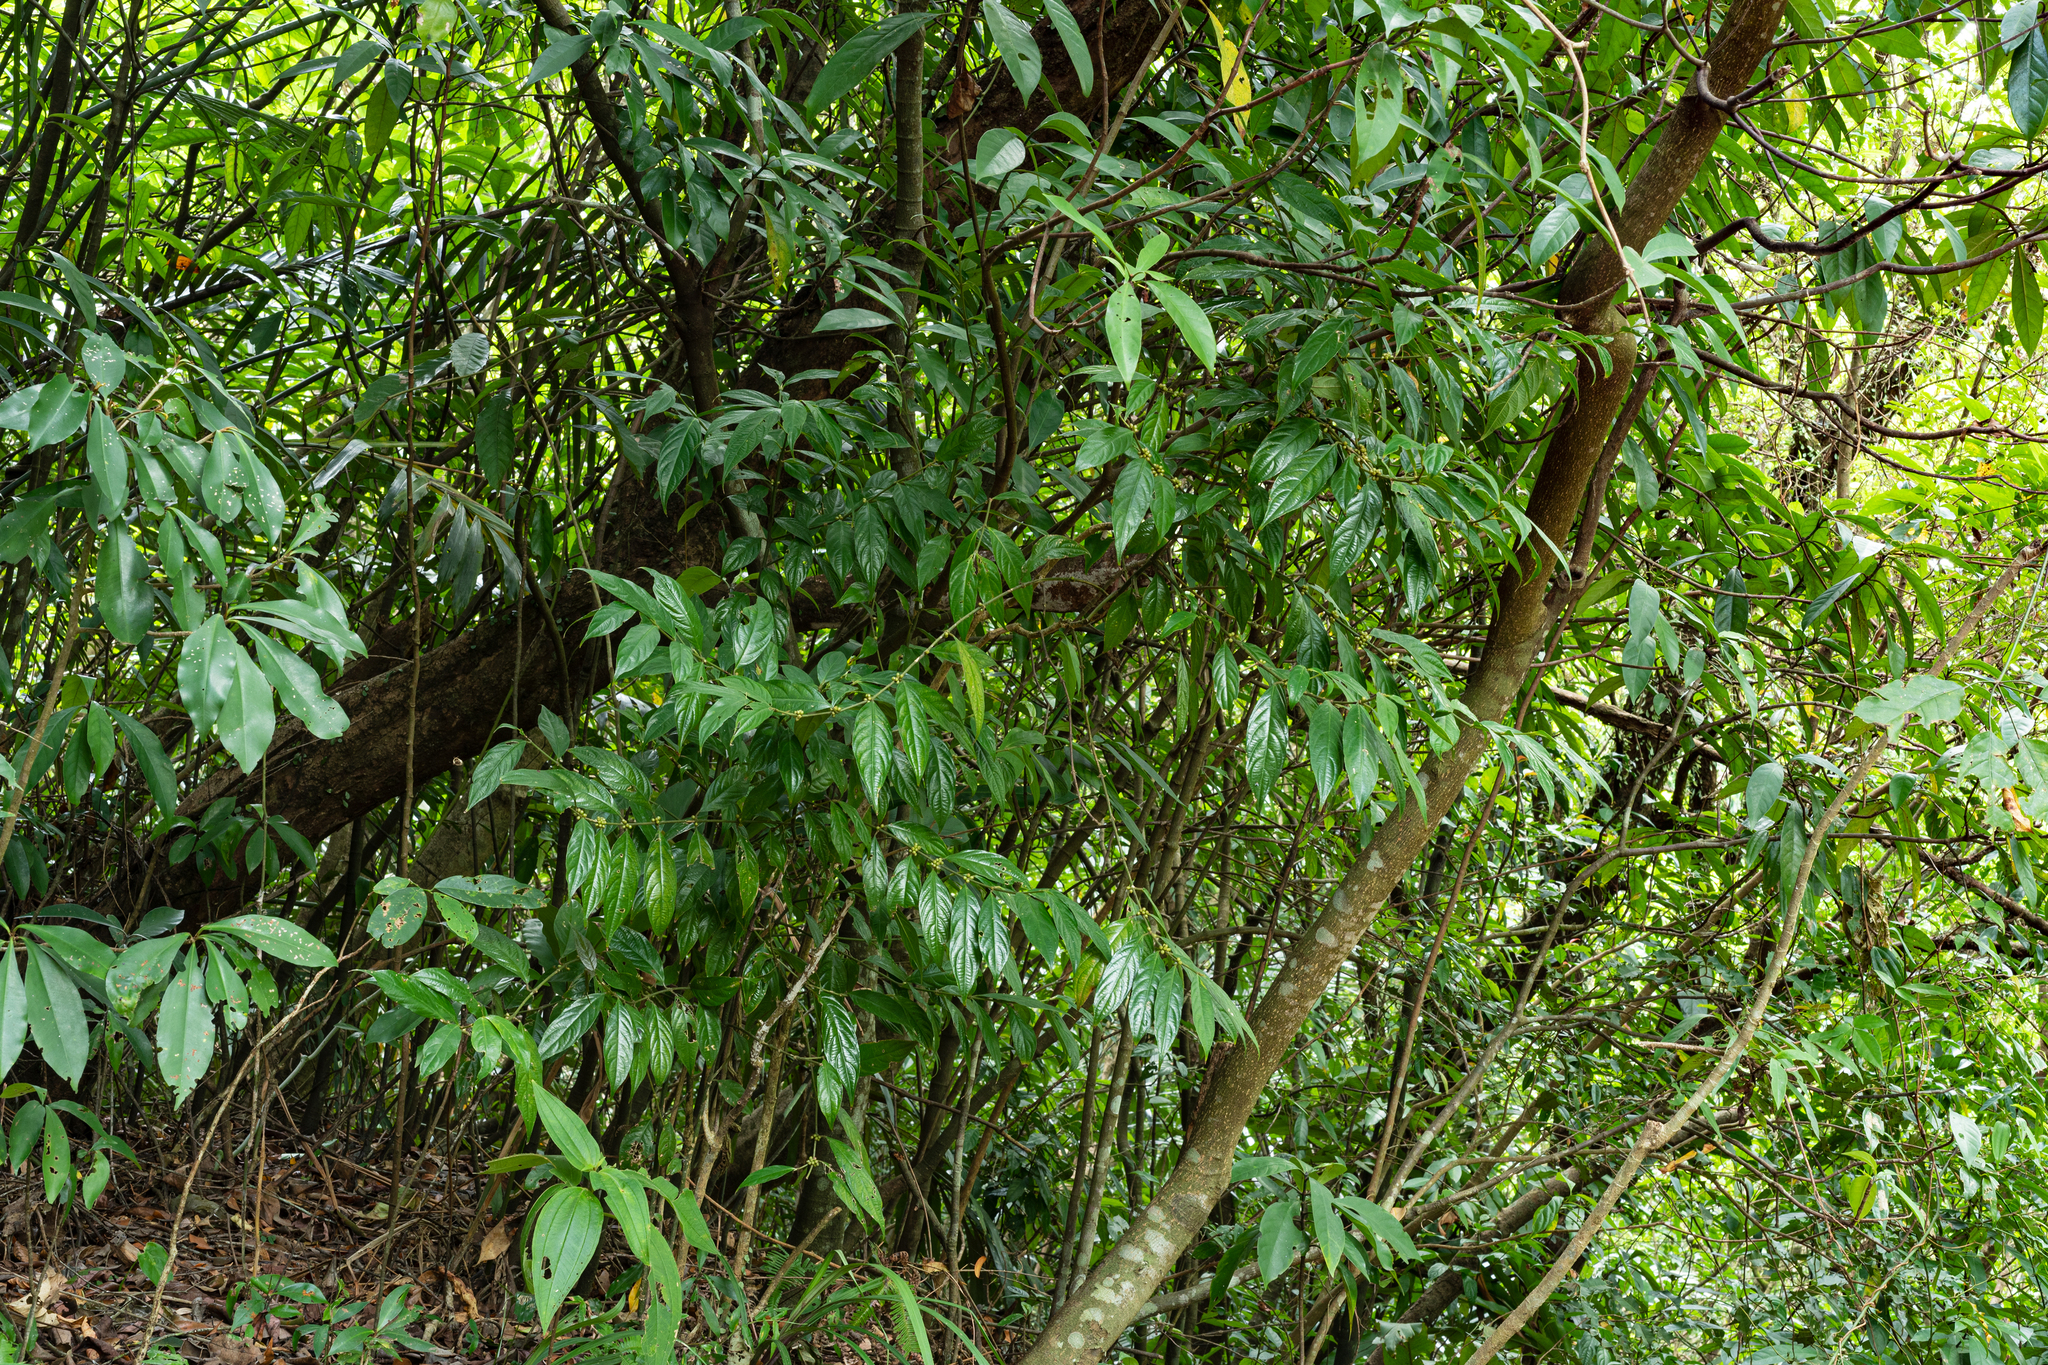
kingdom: Plantae
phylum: Tracheophyta
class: Magnoliopsida
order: Gentianales
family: Rubiaceae
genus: Lasianthus
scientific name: Lasianthus fordii
